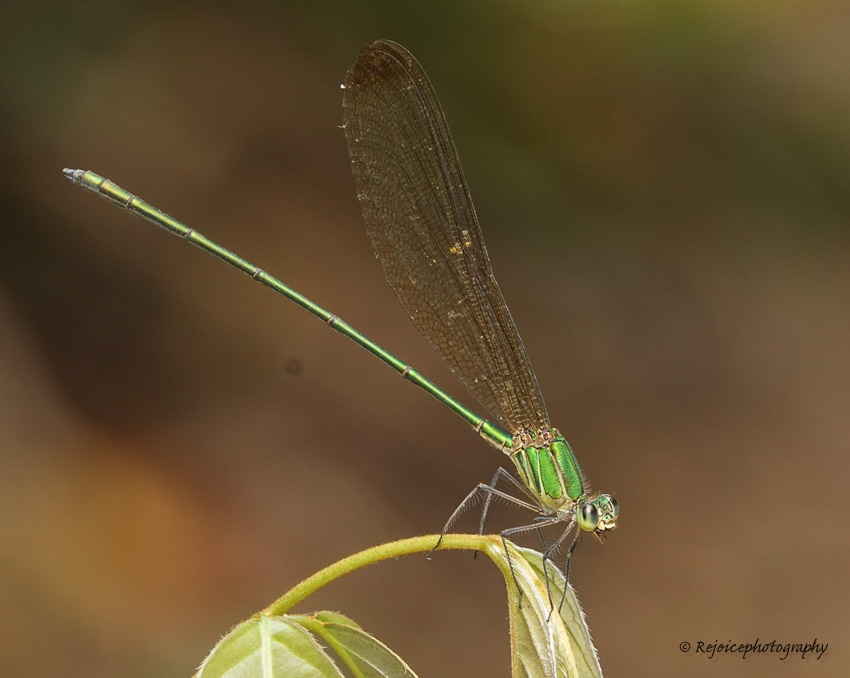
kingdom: Animalia
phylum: Arthropoda
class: Insecta
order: Odonata
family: Calopterygidae
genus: Vestalis
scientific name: Vestalis gracilis
